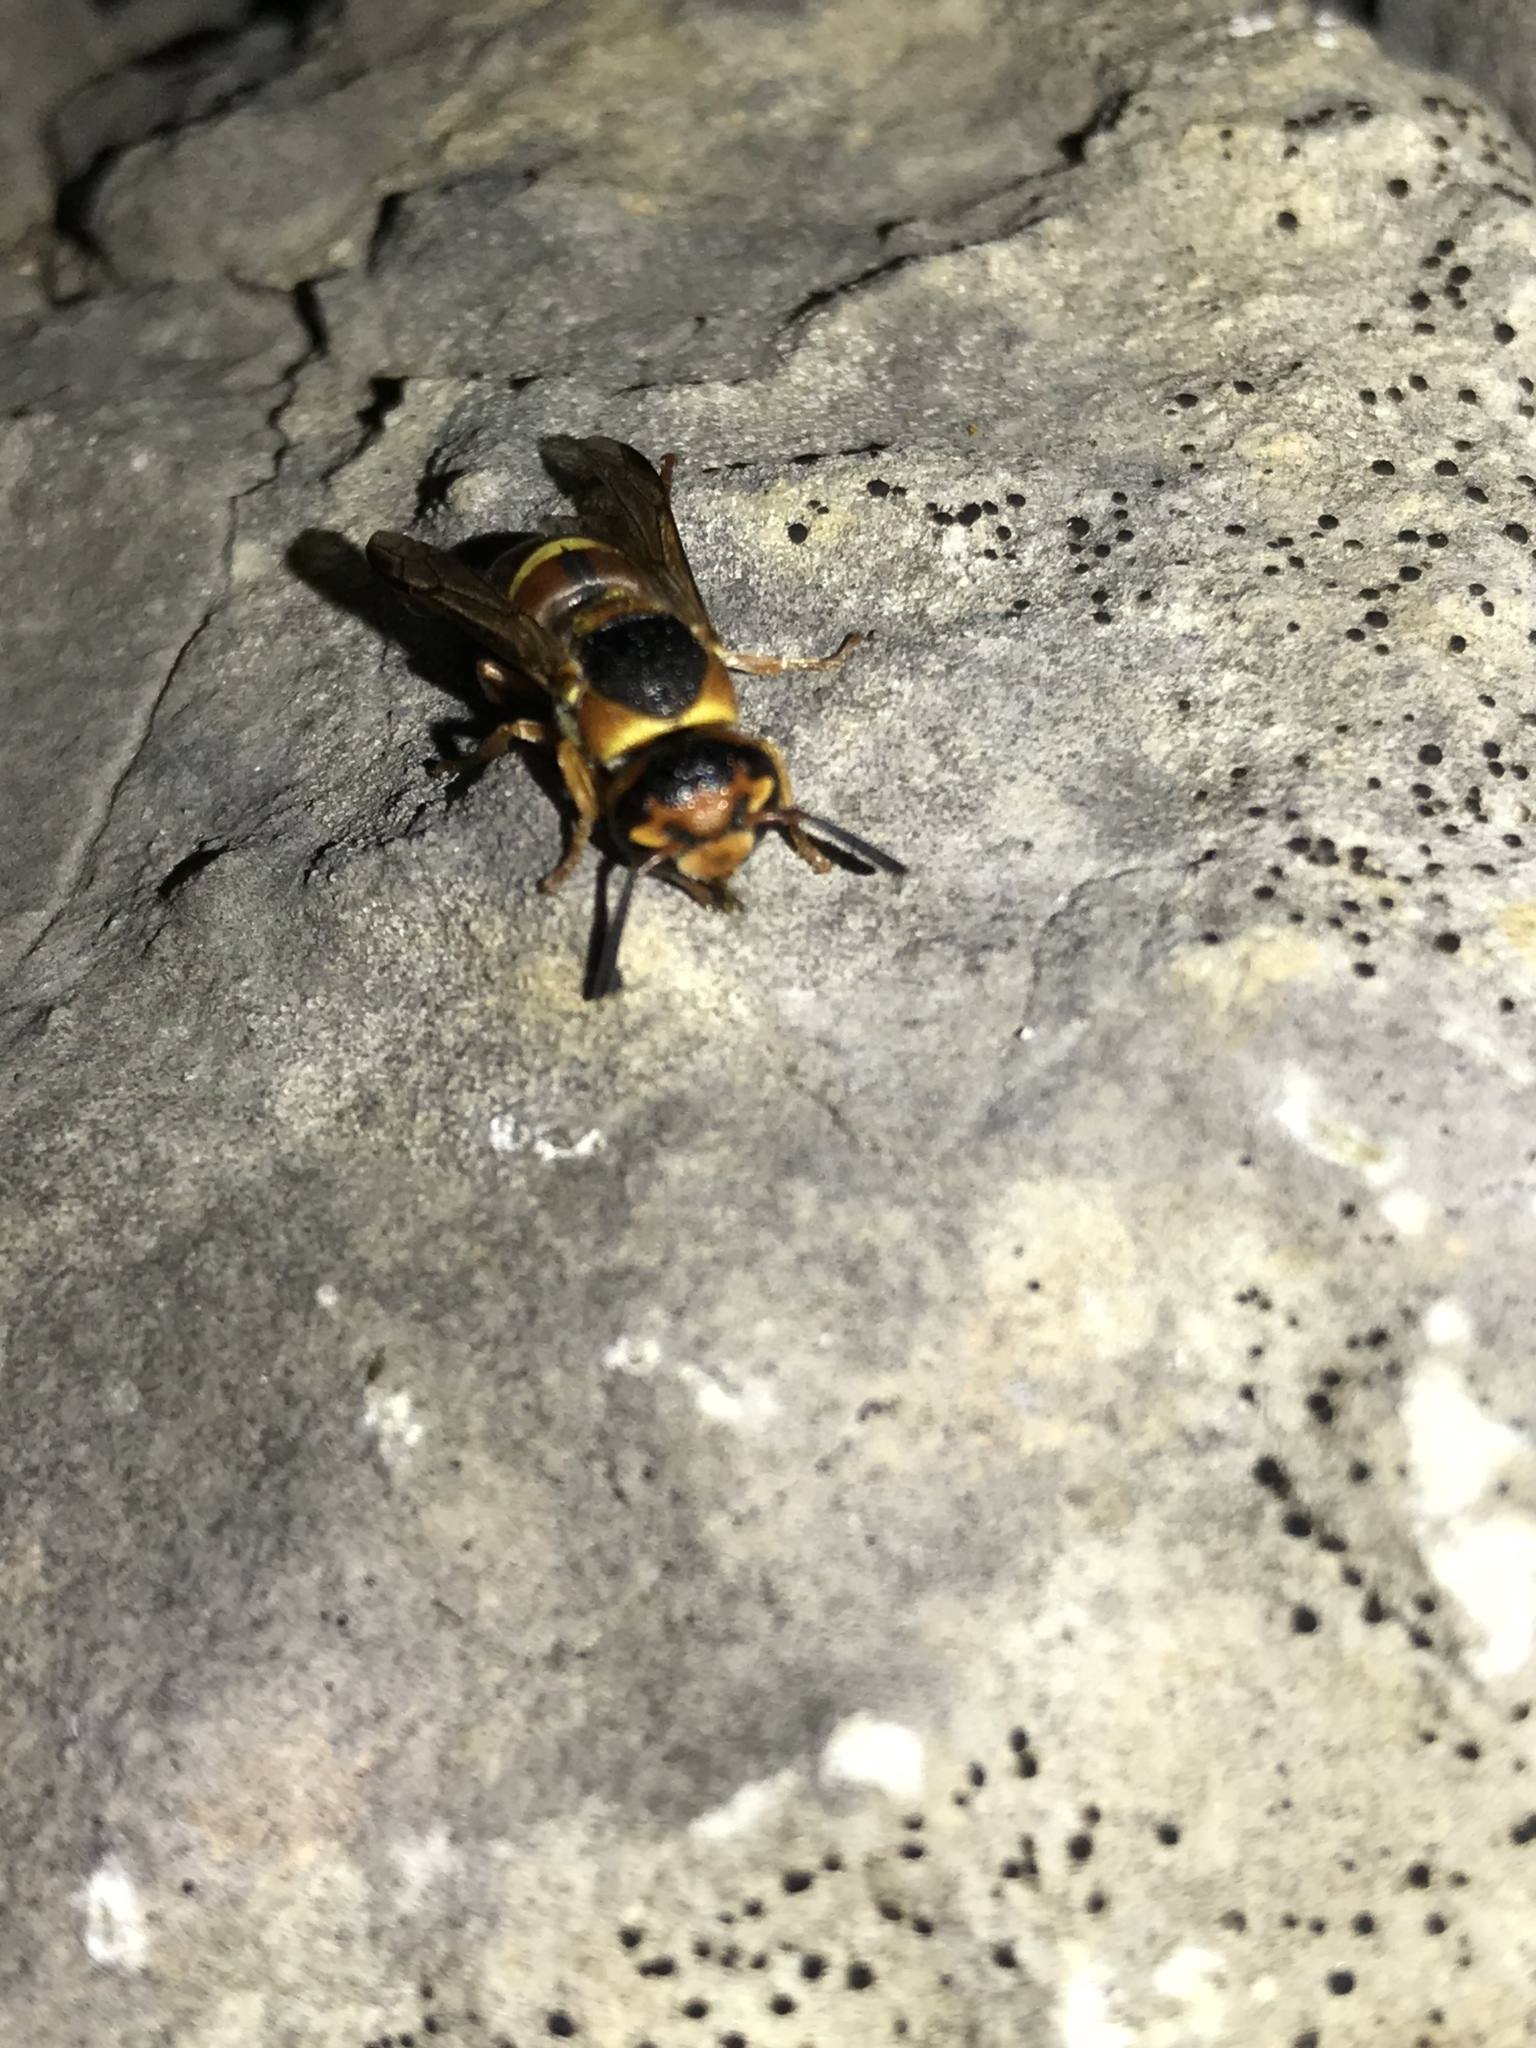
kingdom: Animalia
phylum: Arthropoda
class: Insecta
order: Hymenoptera
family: Eumenidae
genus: Euodynerus
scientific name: Euodynerus annulatus
